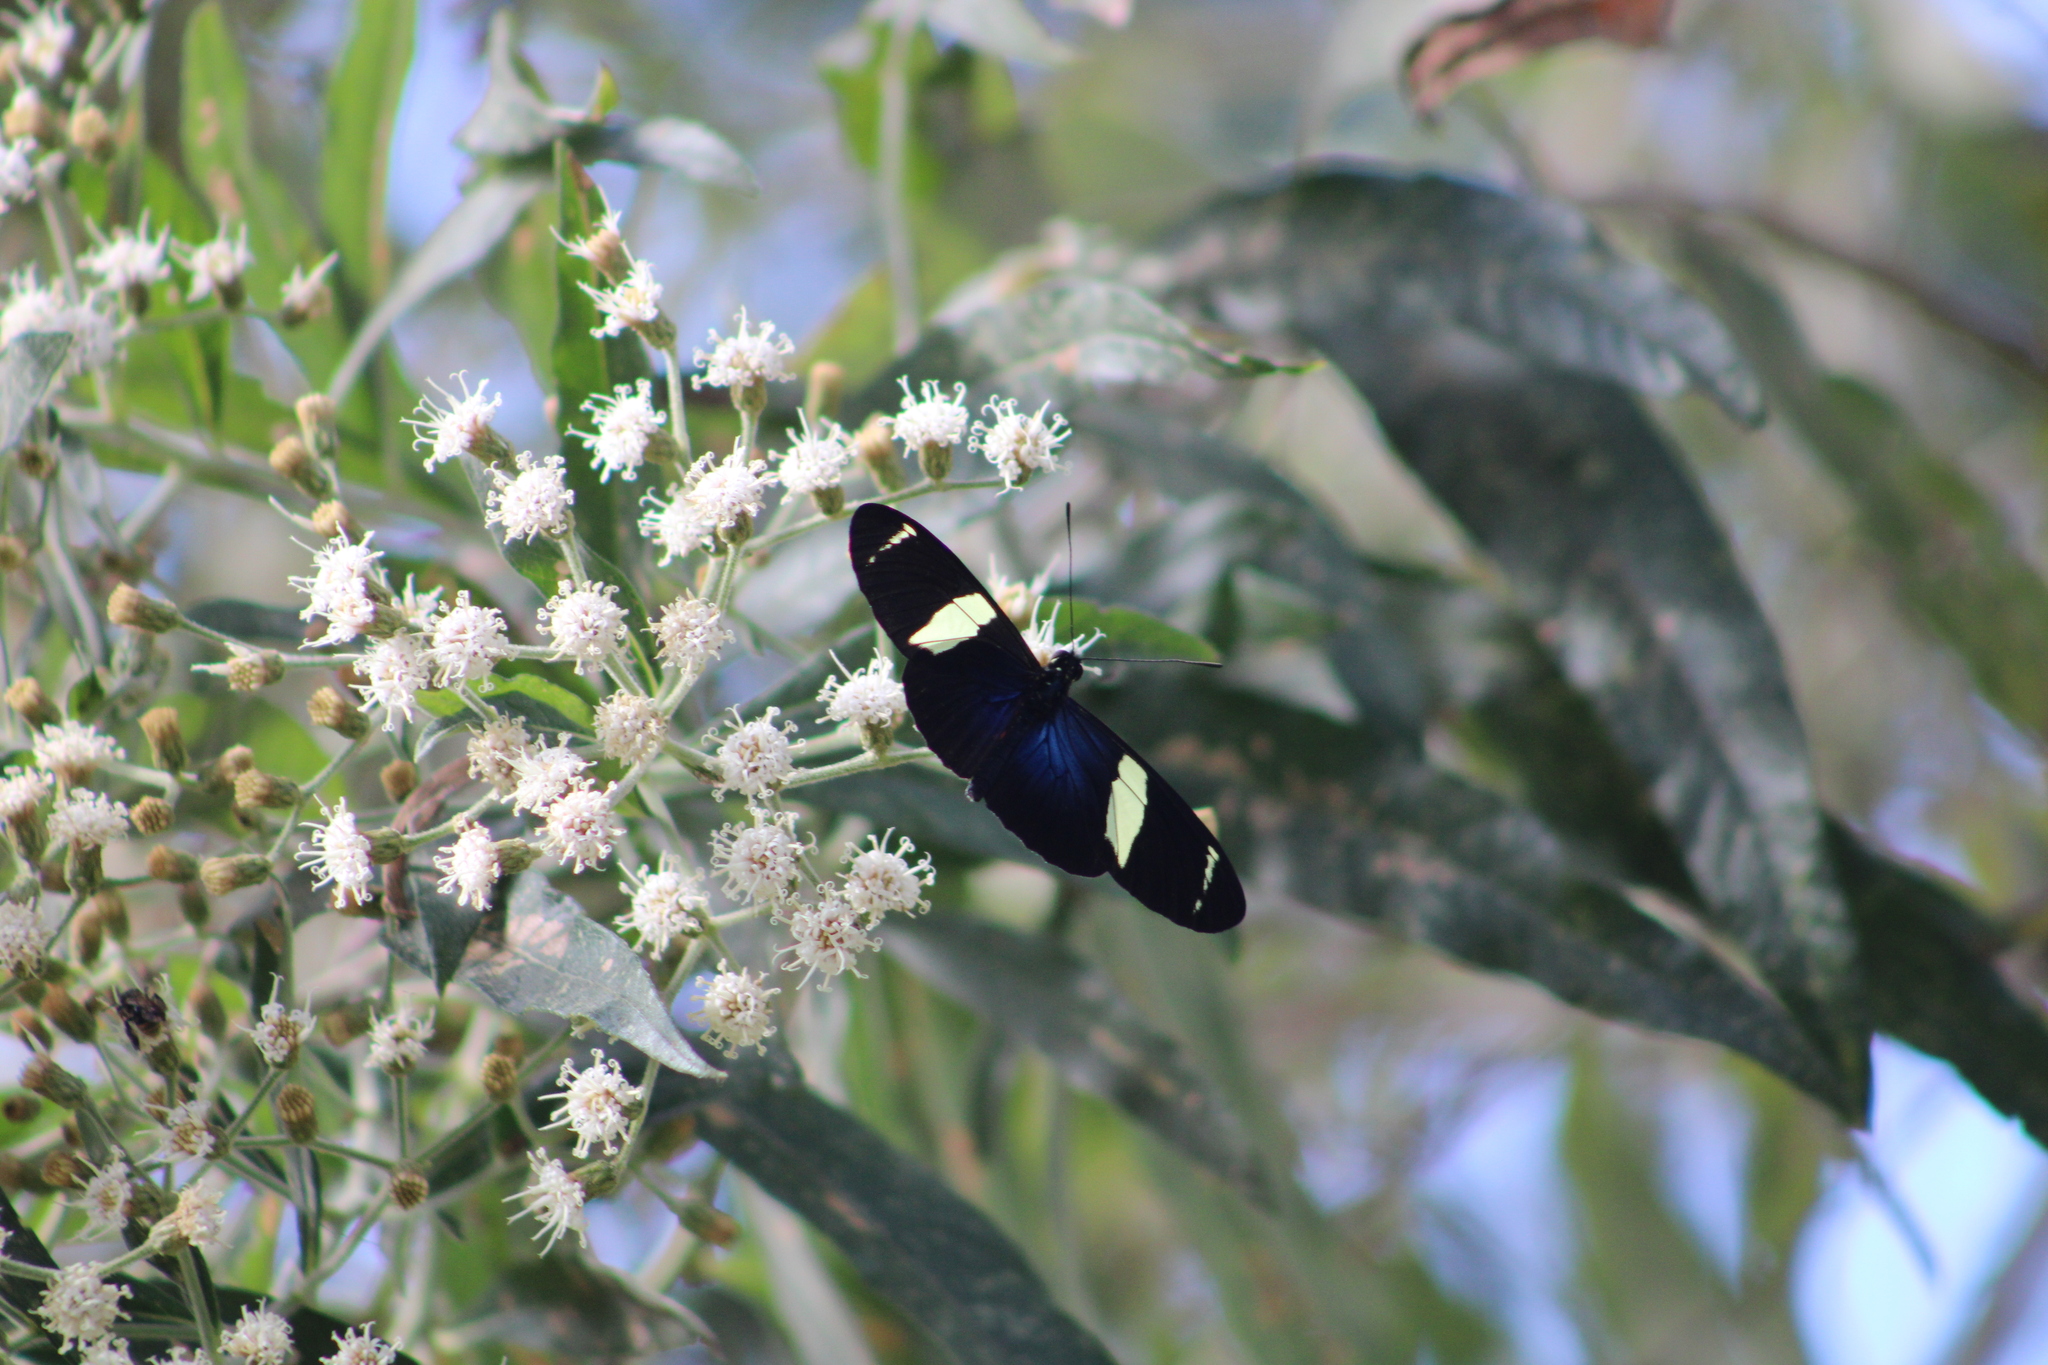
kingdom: Animalia
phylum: Arthropoda
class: Insecta
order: Lepidoptera
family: Nymphalidae
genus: Heliconius
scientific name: Heliconius sara
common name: Sara longwing
